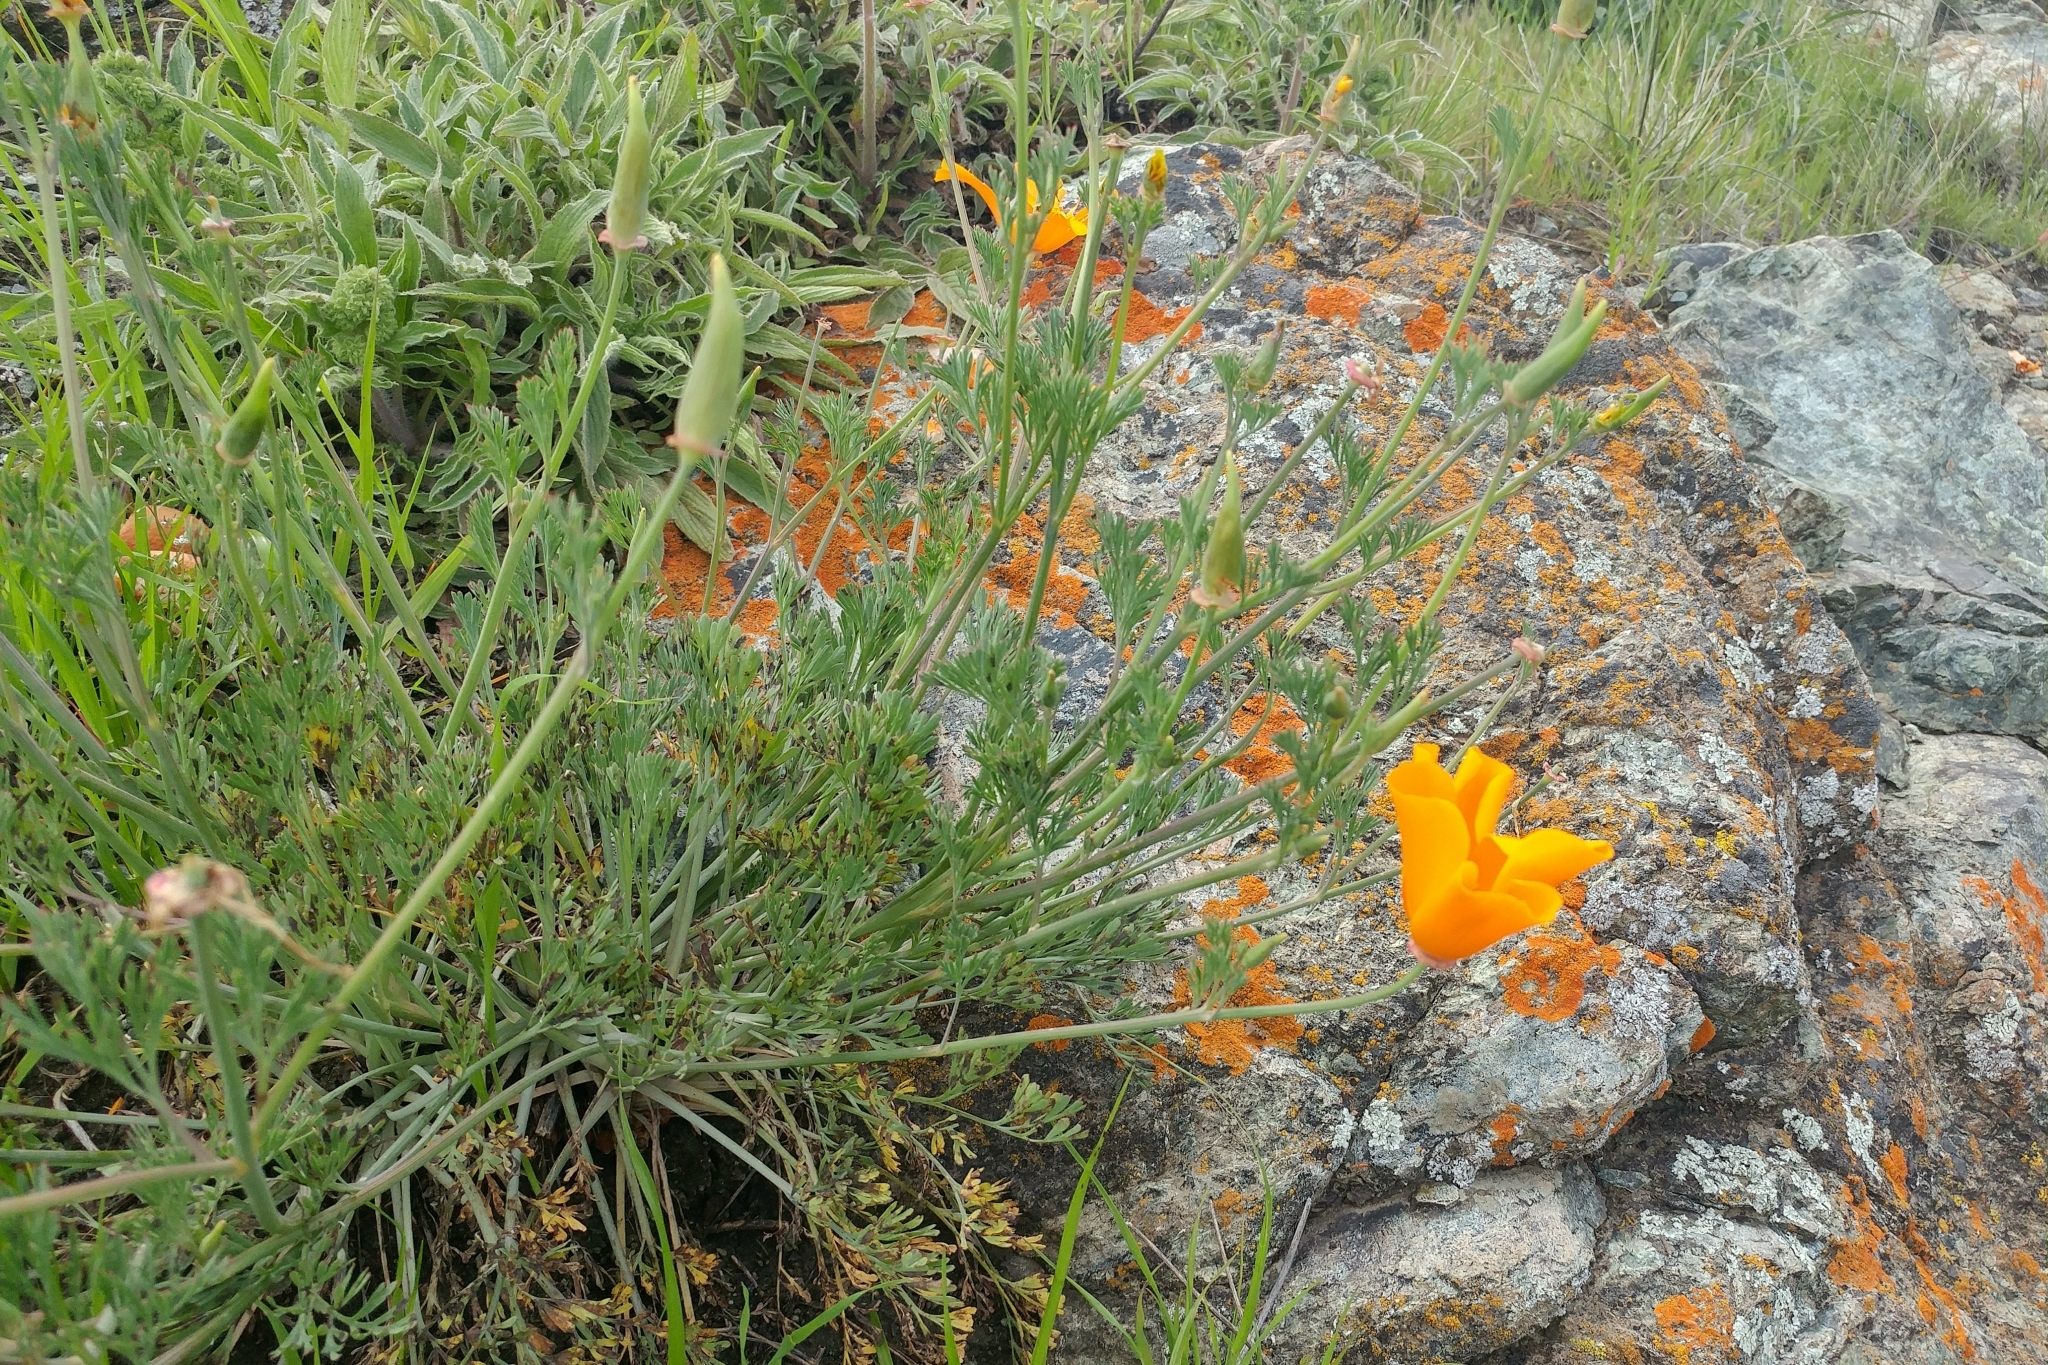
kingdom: Plantae
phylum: Tracheophyta
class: Magnoliopsida
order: Ranunculales
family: Papaveraceae
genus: Eschscholzia
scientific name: Eschscholzia californica
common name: California poppy
